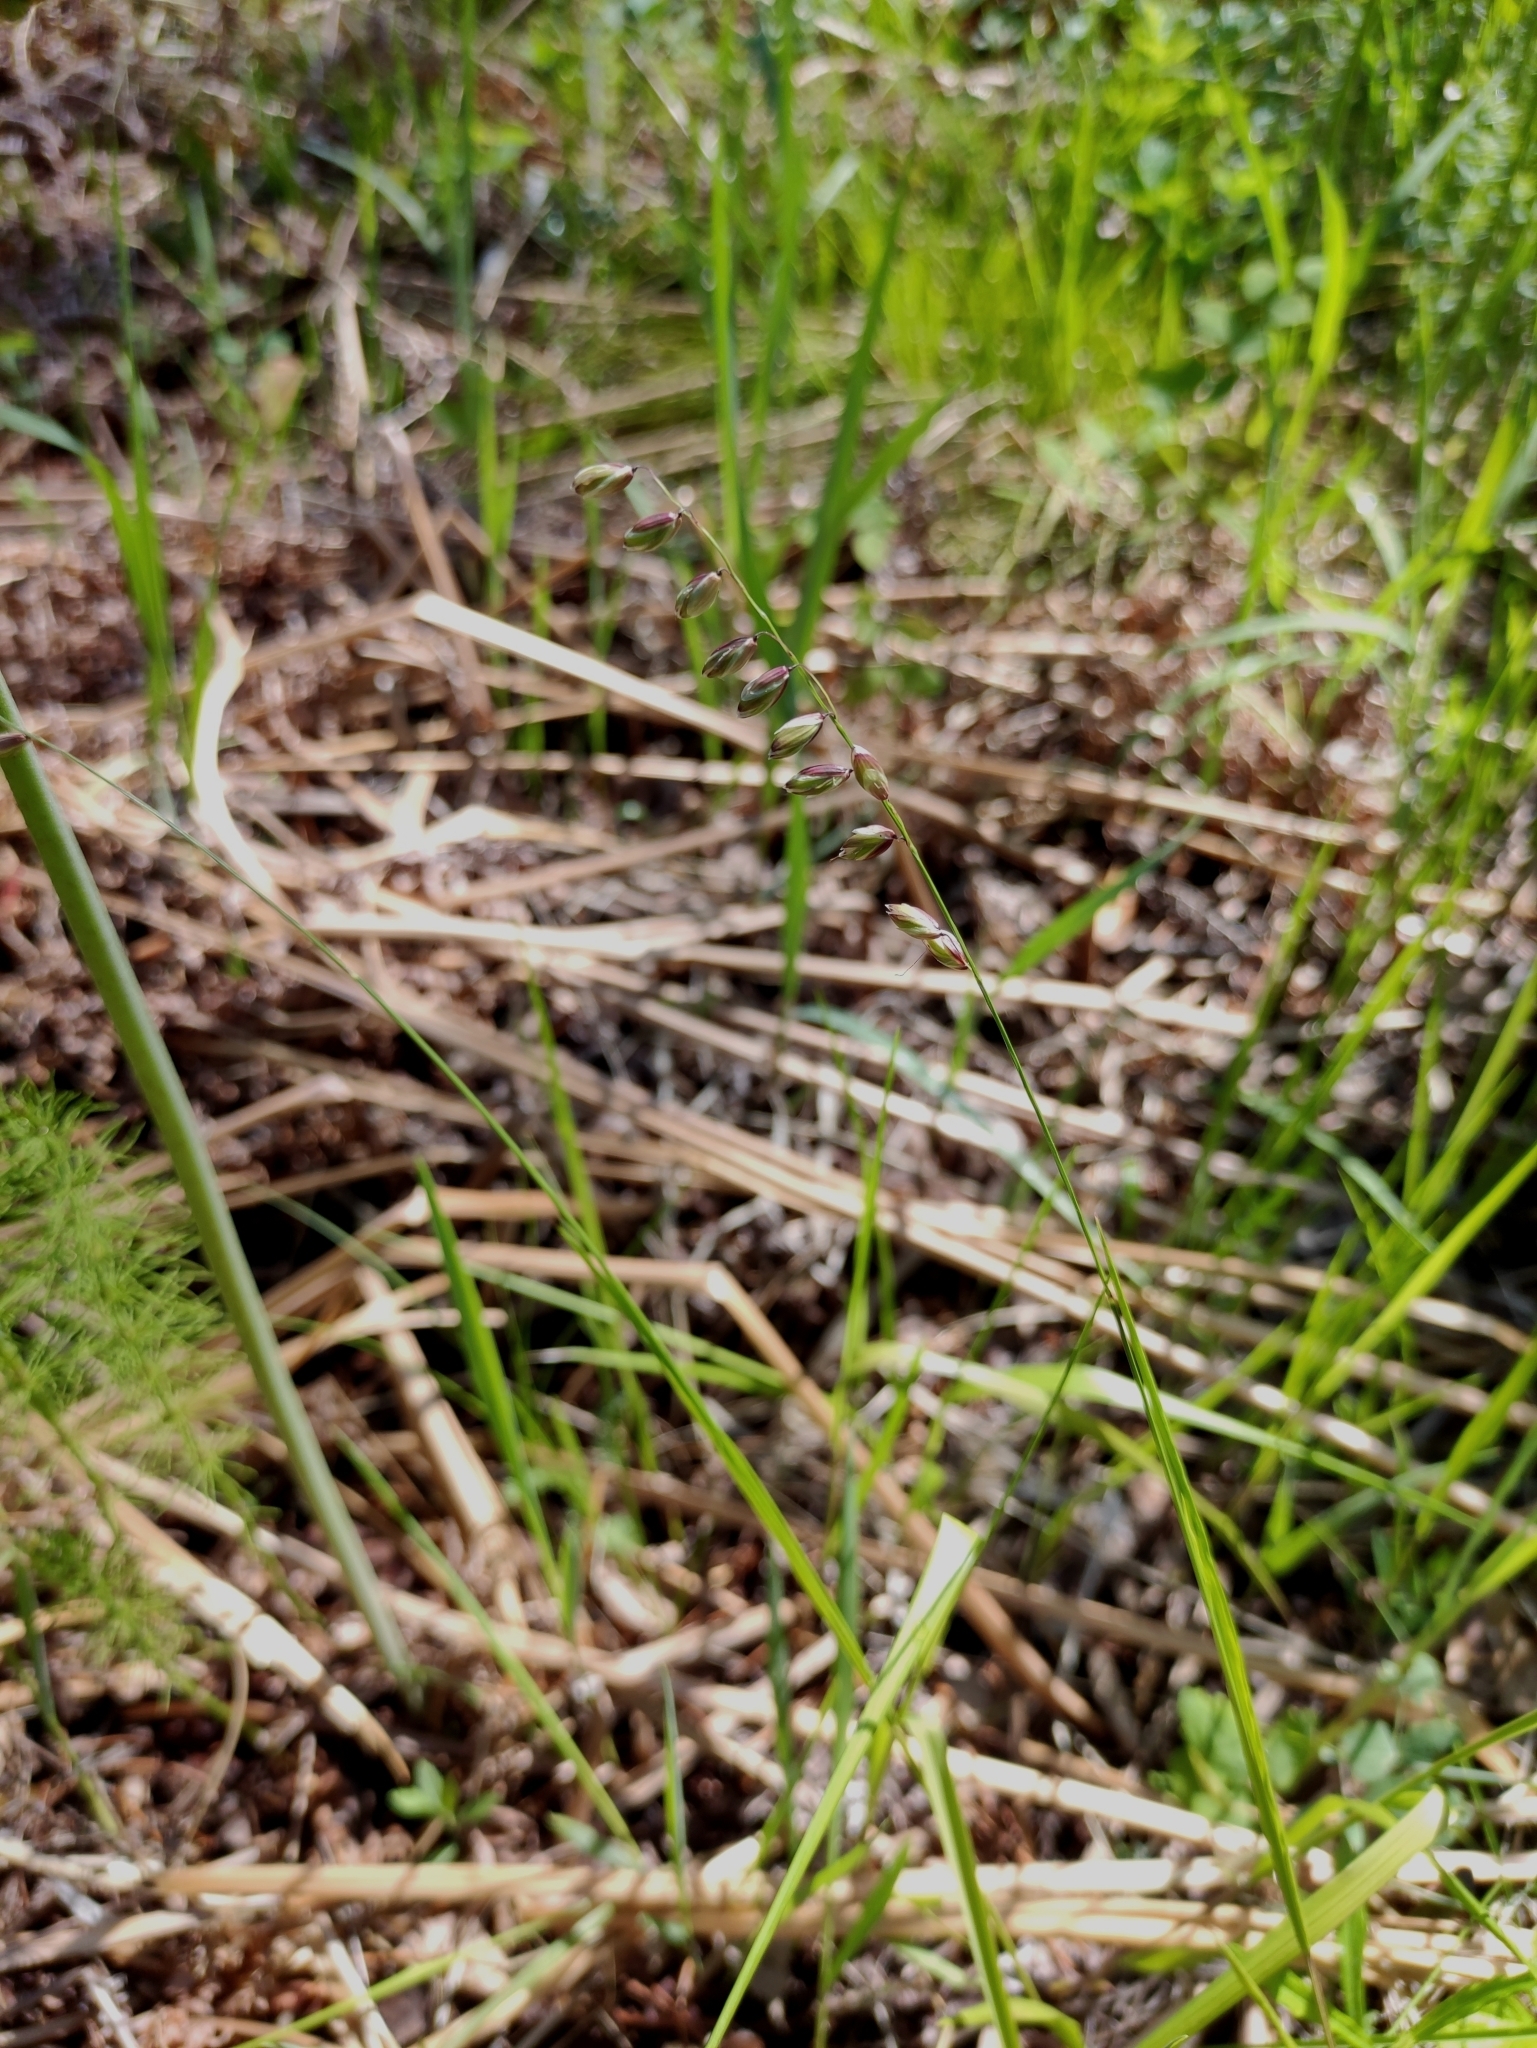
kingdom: Plantae
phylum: Tracheophyta
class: Liliopsida
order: Poales
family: Poaceae
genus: Melica
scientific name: Melica nutans
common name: Mountain melick
